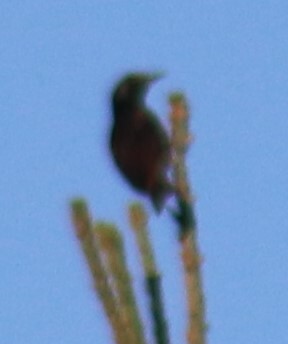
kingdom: Animalia
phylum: Chordata
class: Aves
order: Passeriformes
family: Sturnidae
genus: Sturnus
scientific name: Sturnus vulgaris
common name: Common starling
